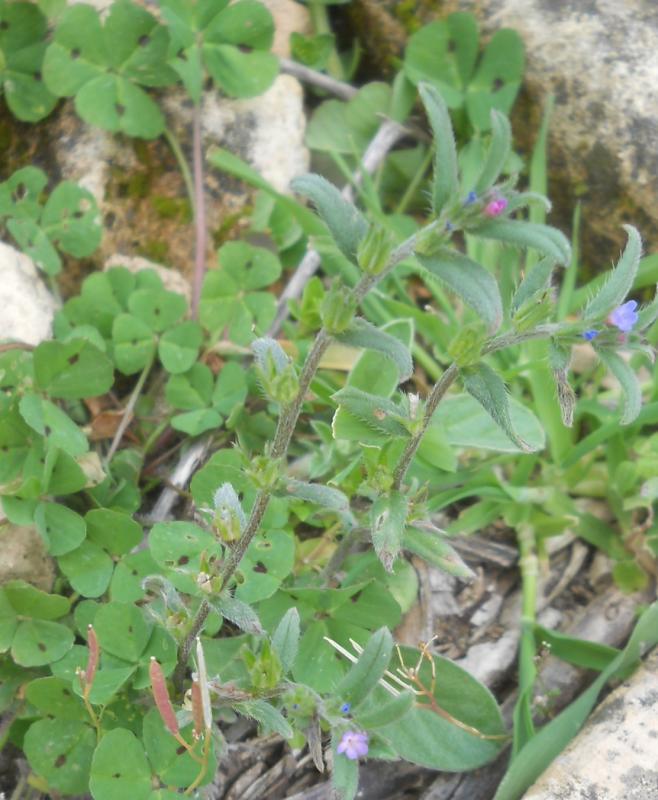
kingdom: Plantae
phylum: Tracheophyta
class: Magnoliopsida
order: Fabales
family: Fabaceae
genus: Medicago
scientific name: Medicago arabica
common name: Spotted medick
